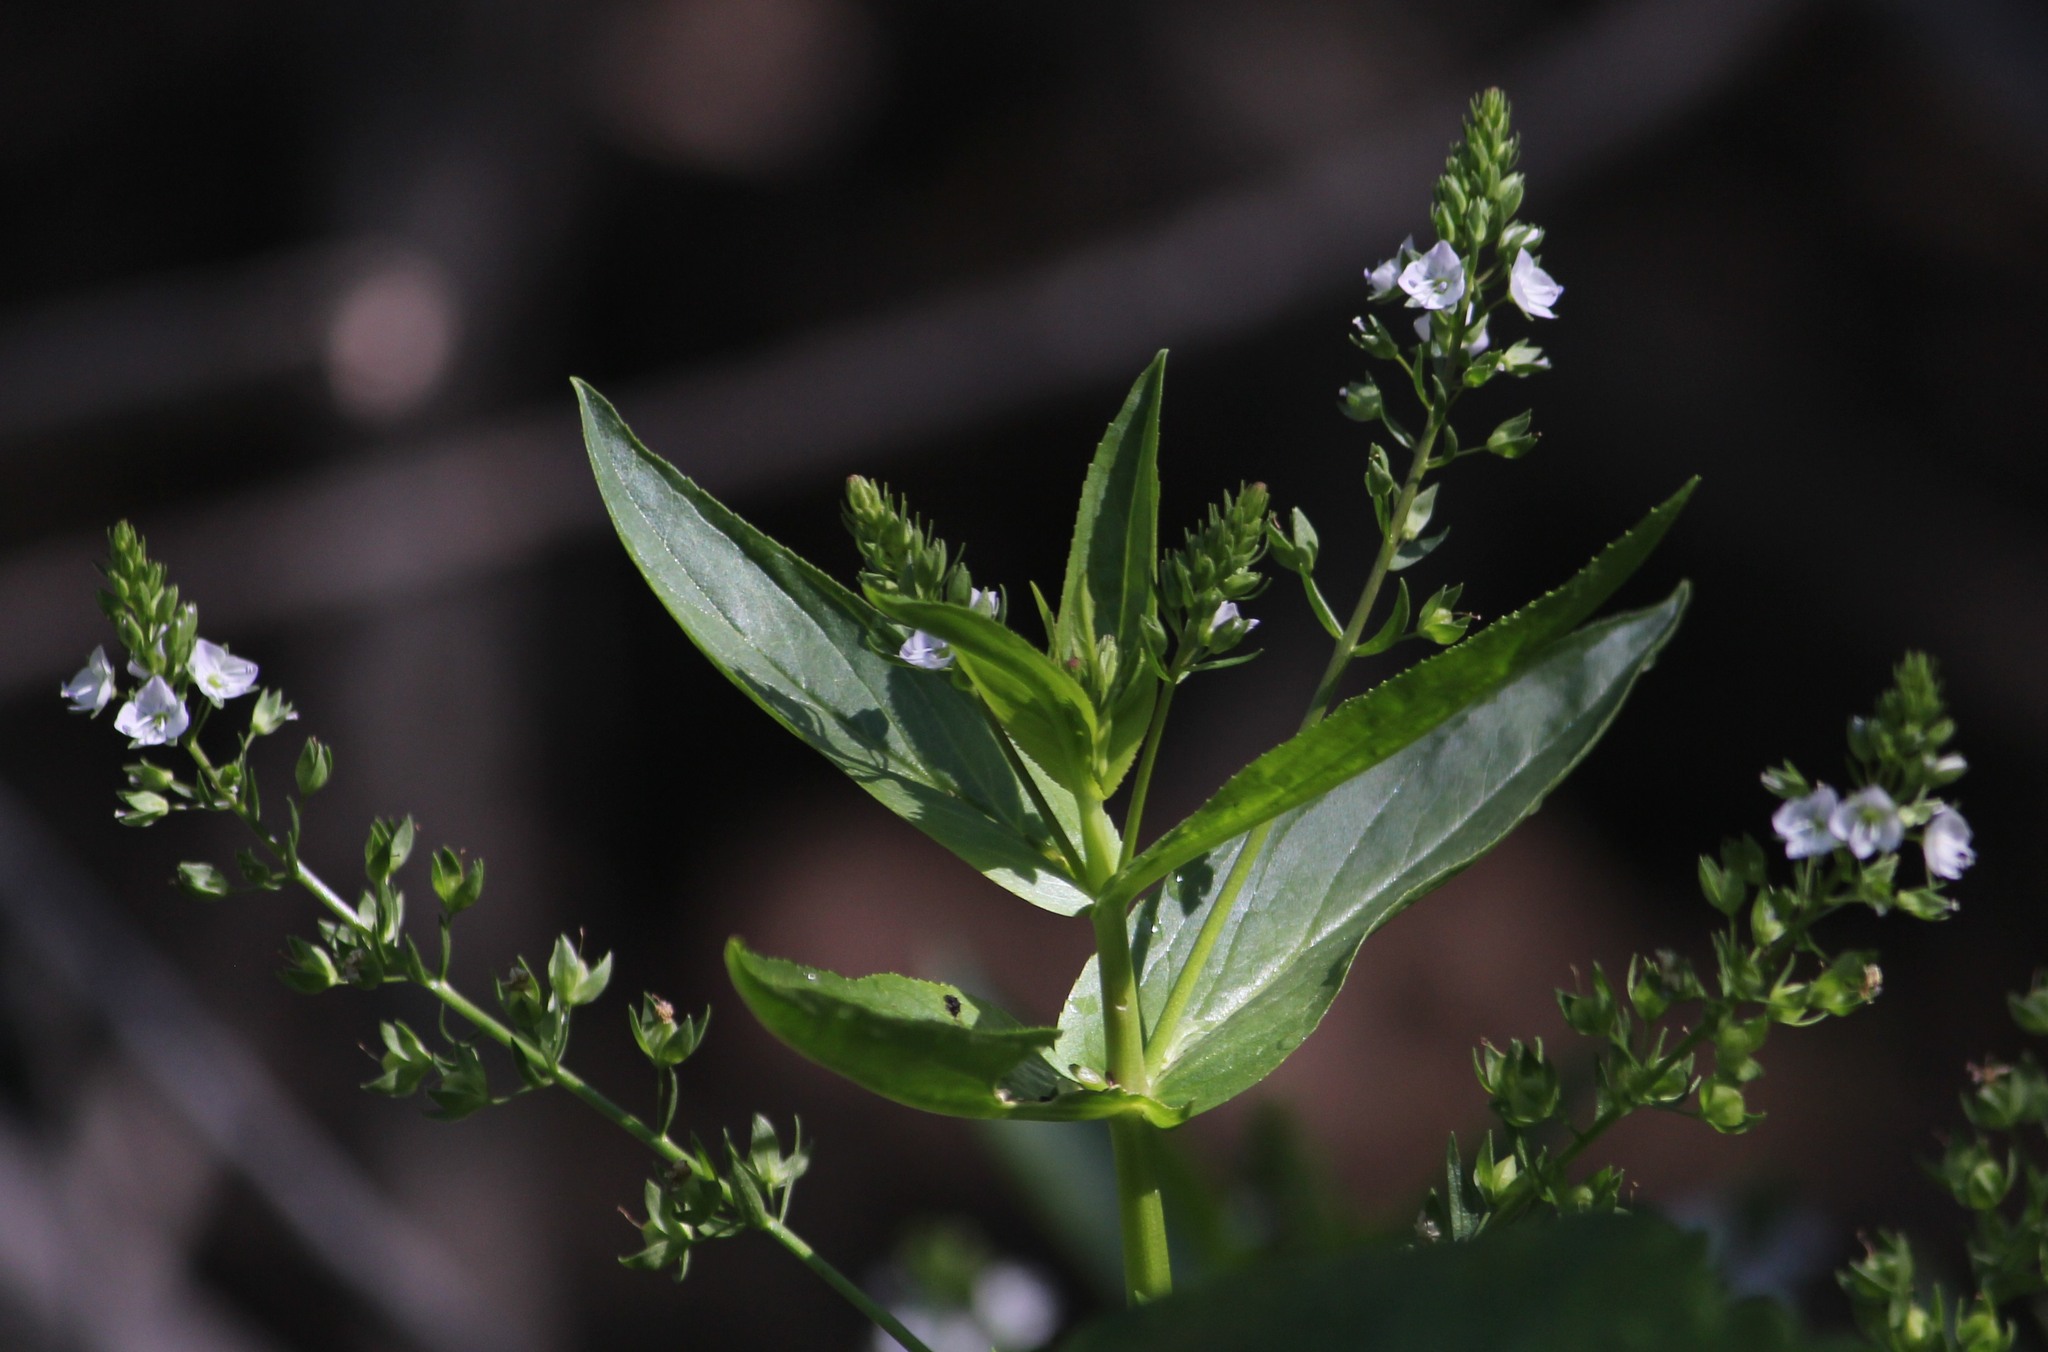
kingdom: Plantae
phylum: Tracheophyta
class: Magnoliopsida
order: Lamiales
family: Plantaginaceae
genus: Veronica
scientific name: Veronica catenata
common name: Pink water-speedwell
